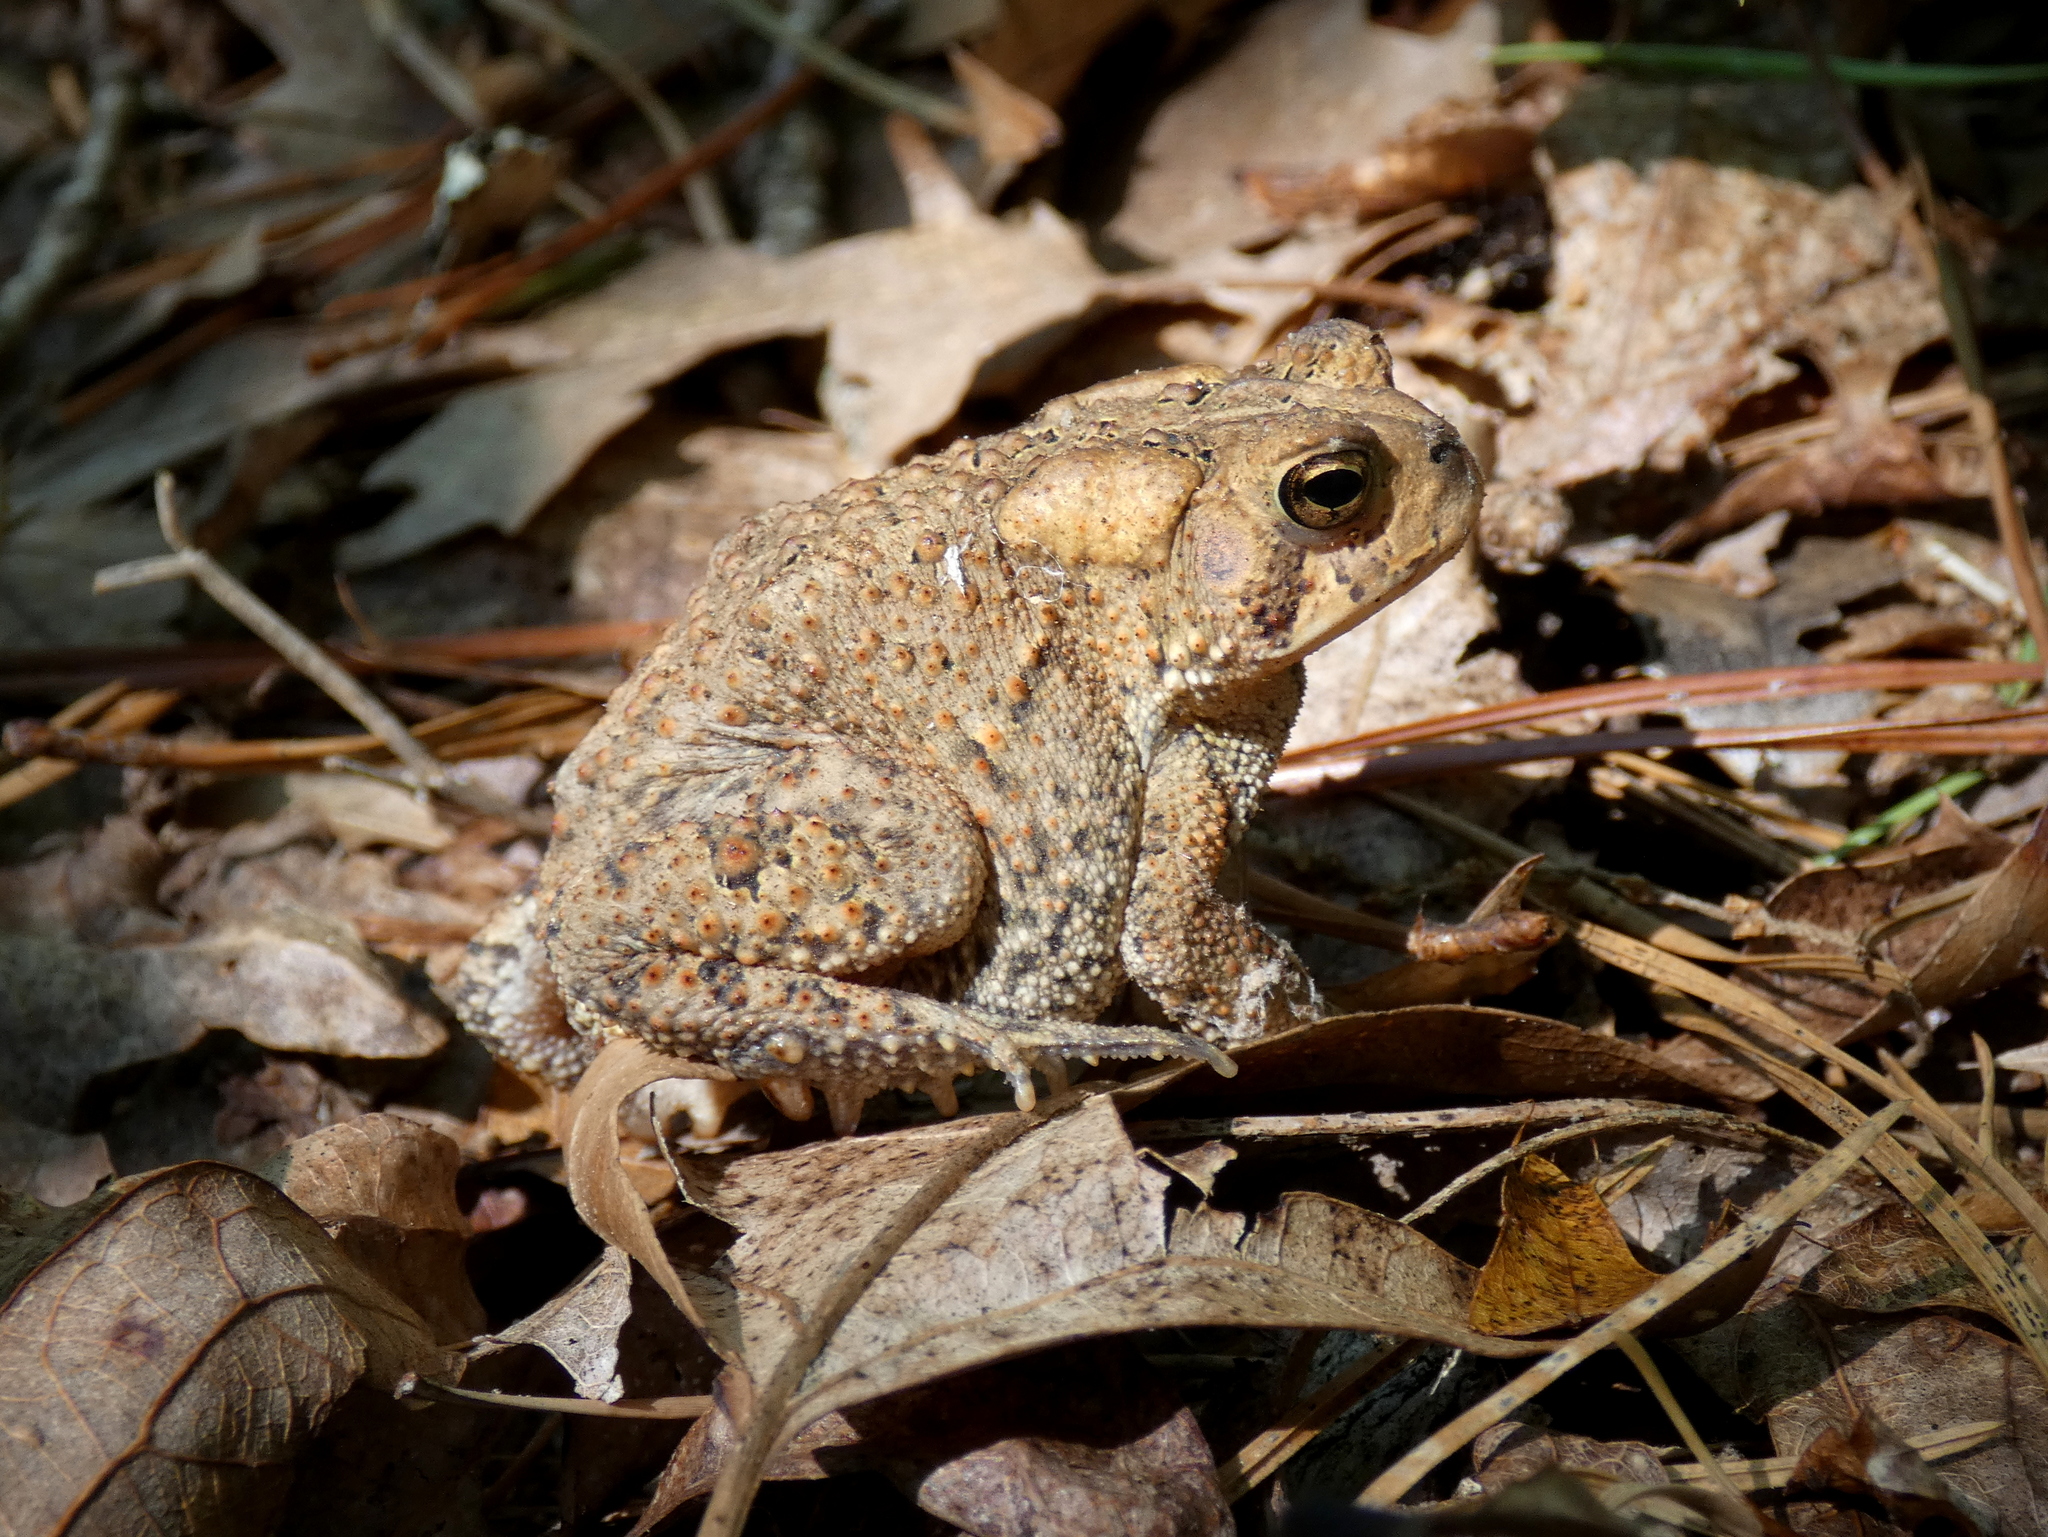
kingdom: Animalia
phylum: Chordata
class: Amphibia
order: Anura
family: Bufonidae
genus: Anaxyrus
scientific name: Anaxyrus americanus
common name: American toad
